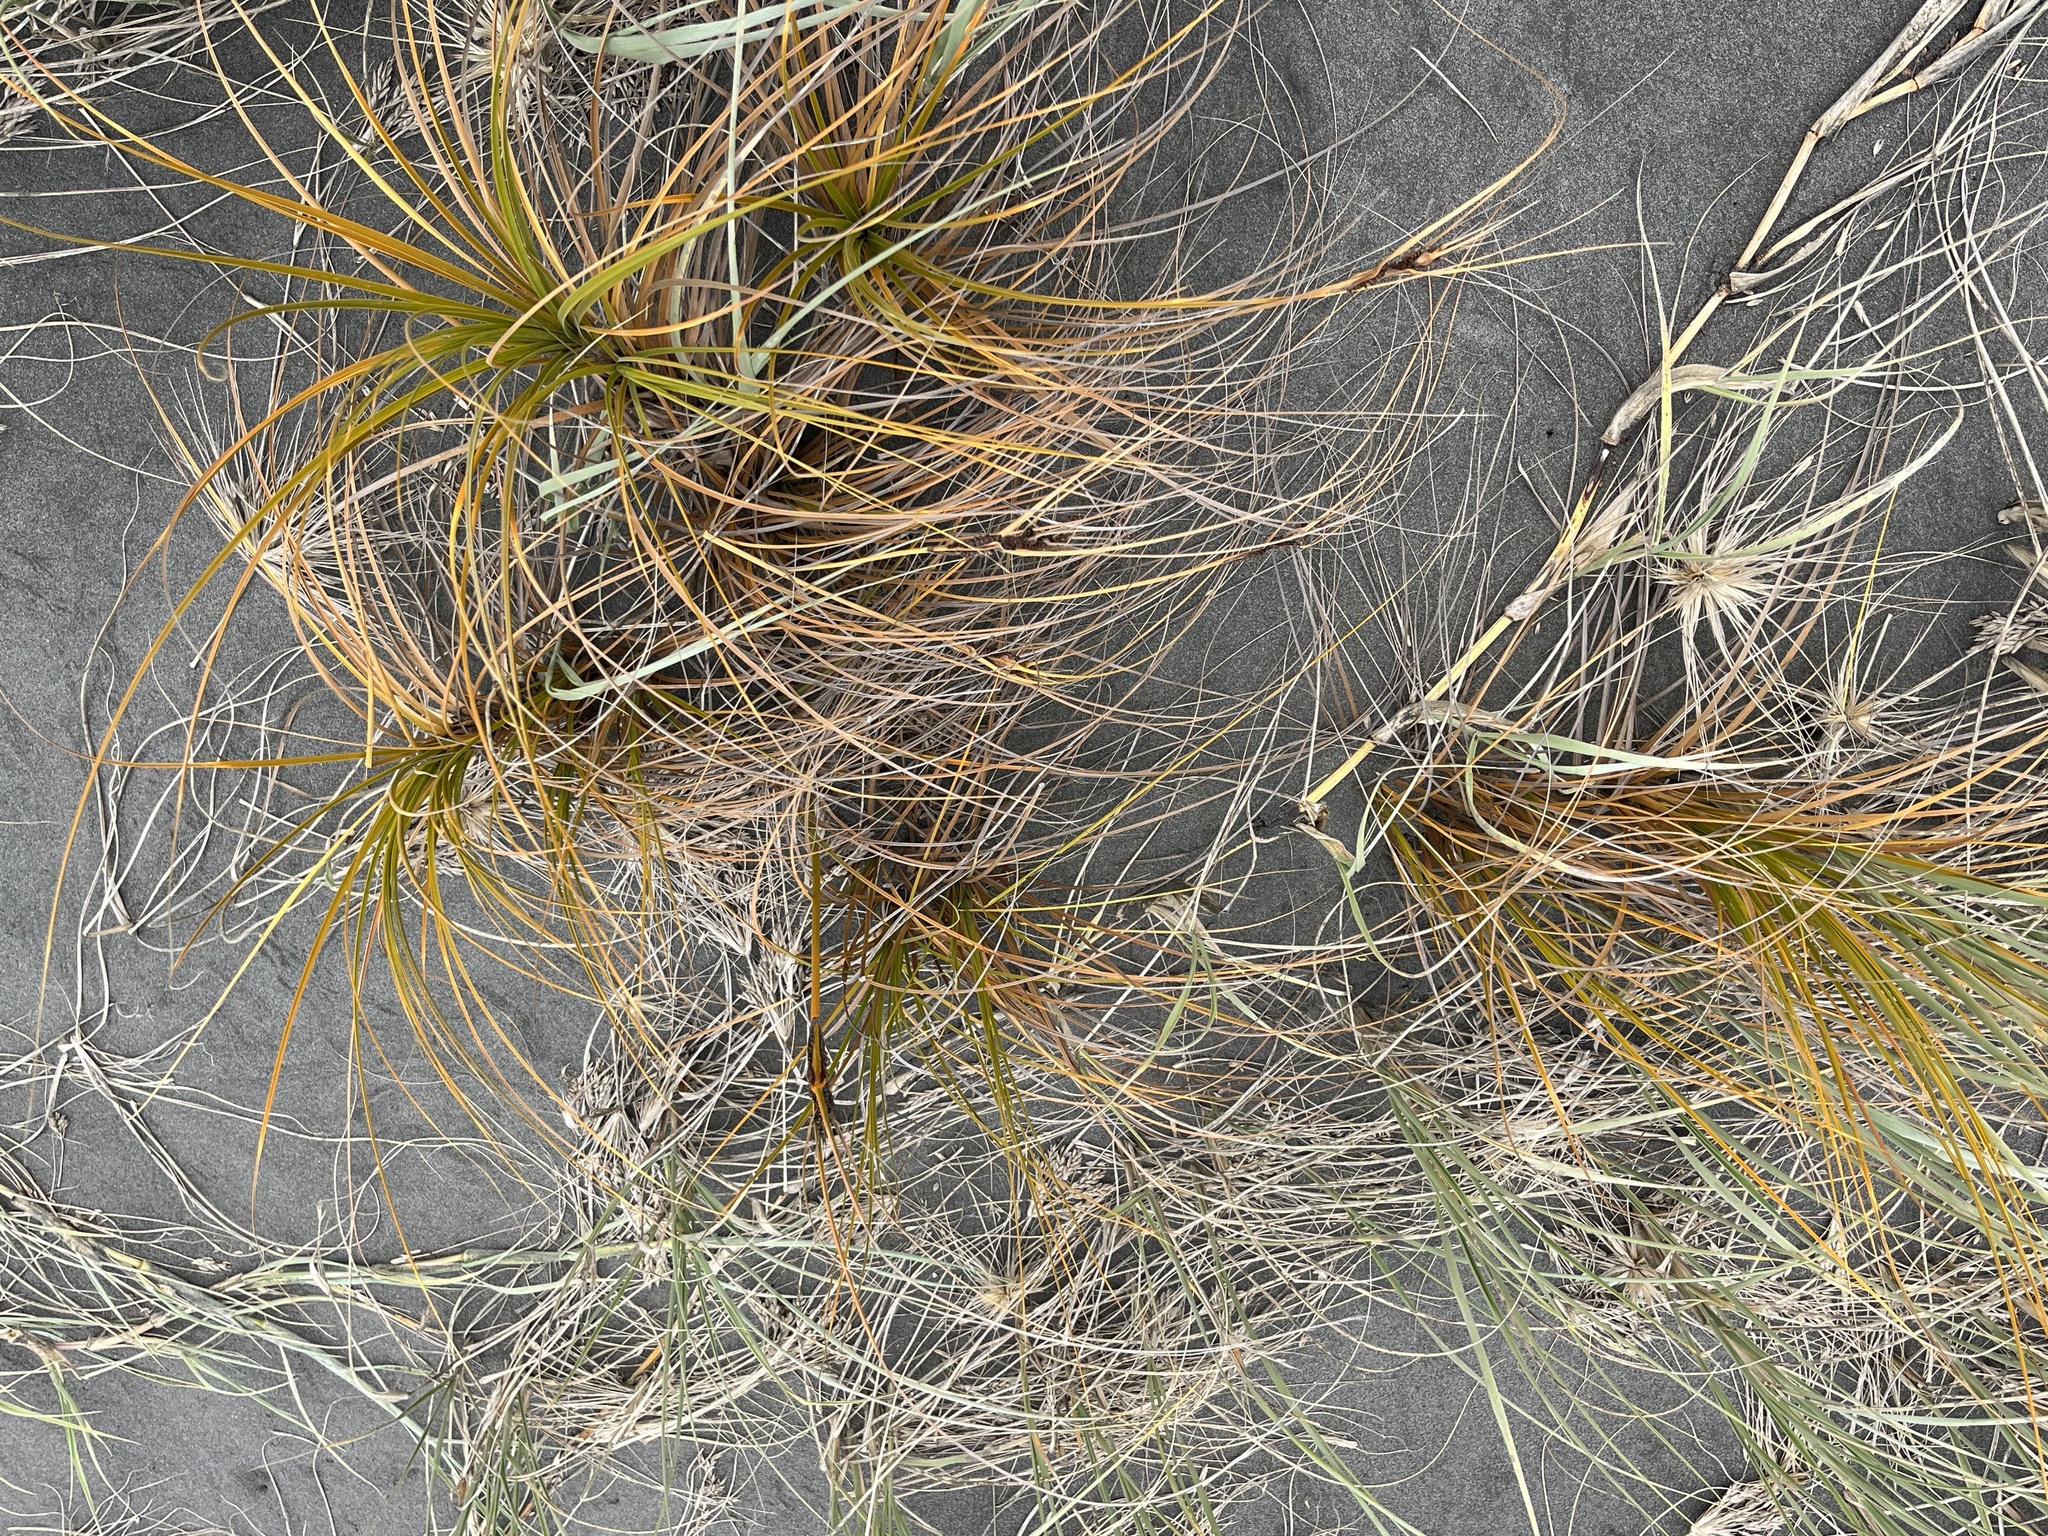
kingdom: Plantae
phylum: Tracheophyta
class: Liliopsida
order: Poales
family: Cyperaceae
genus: Ficinia
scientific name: Ficinia spiralis
